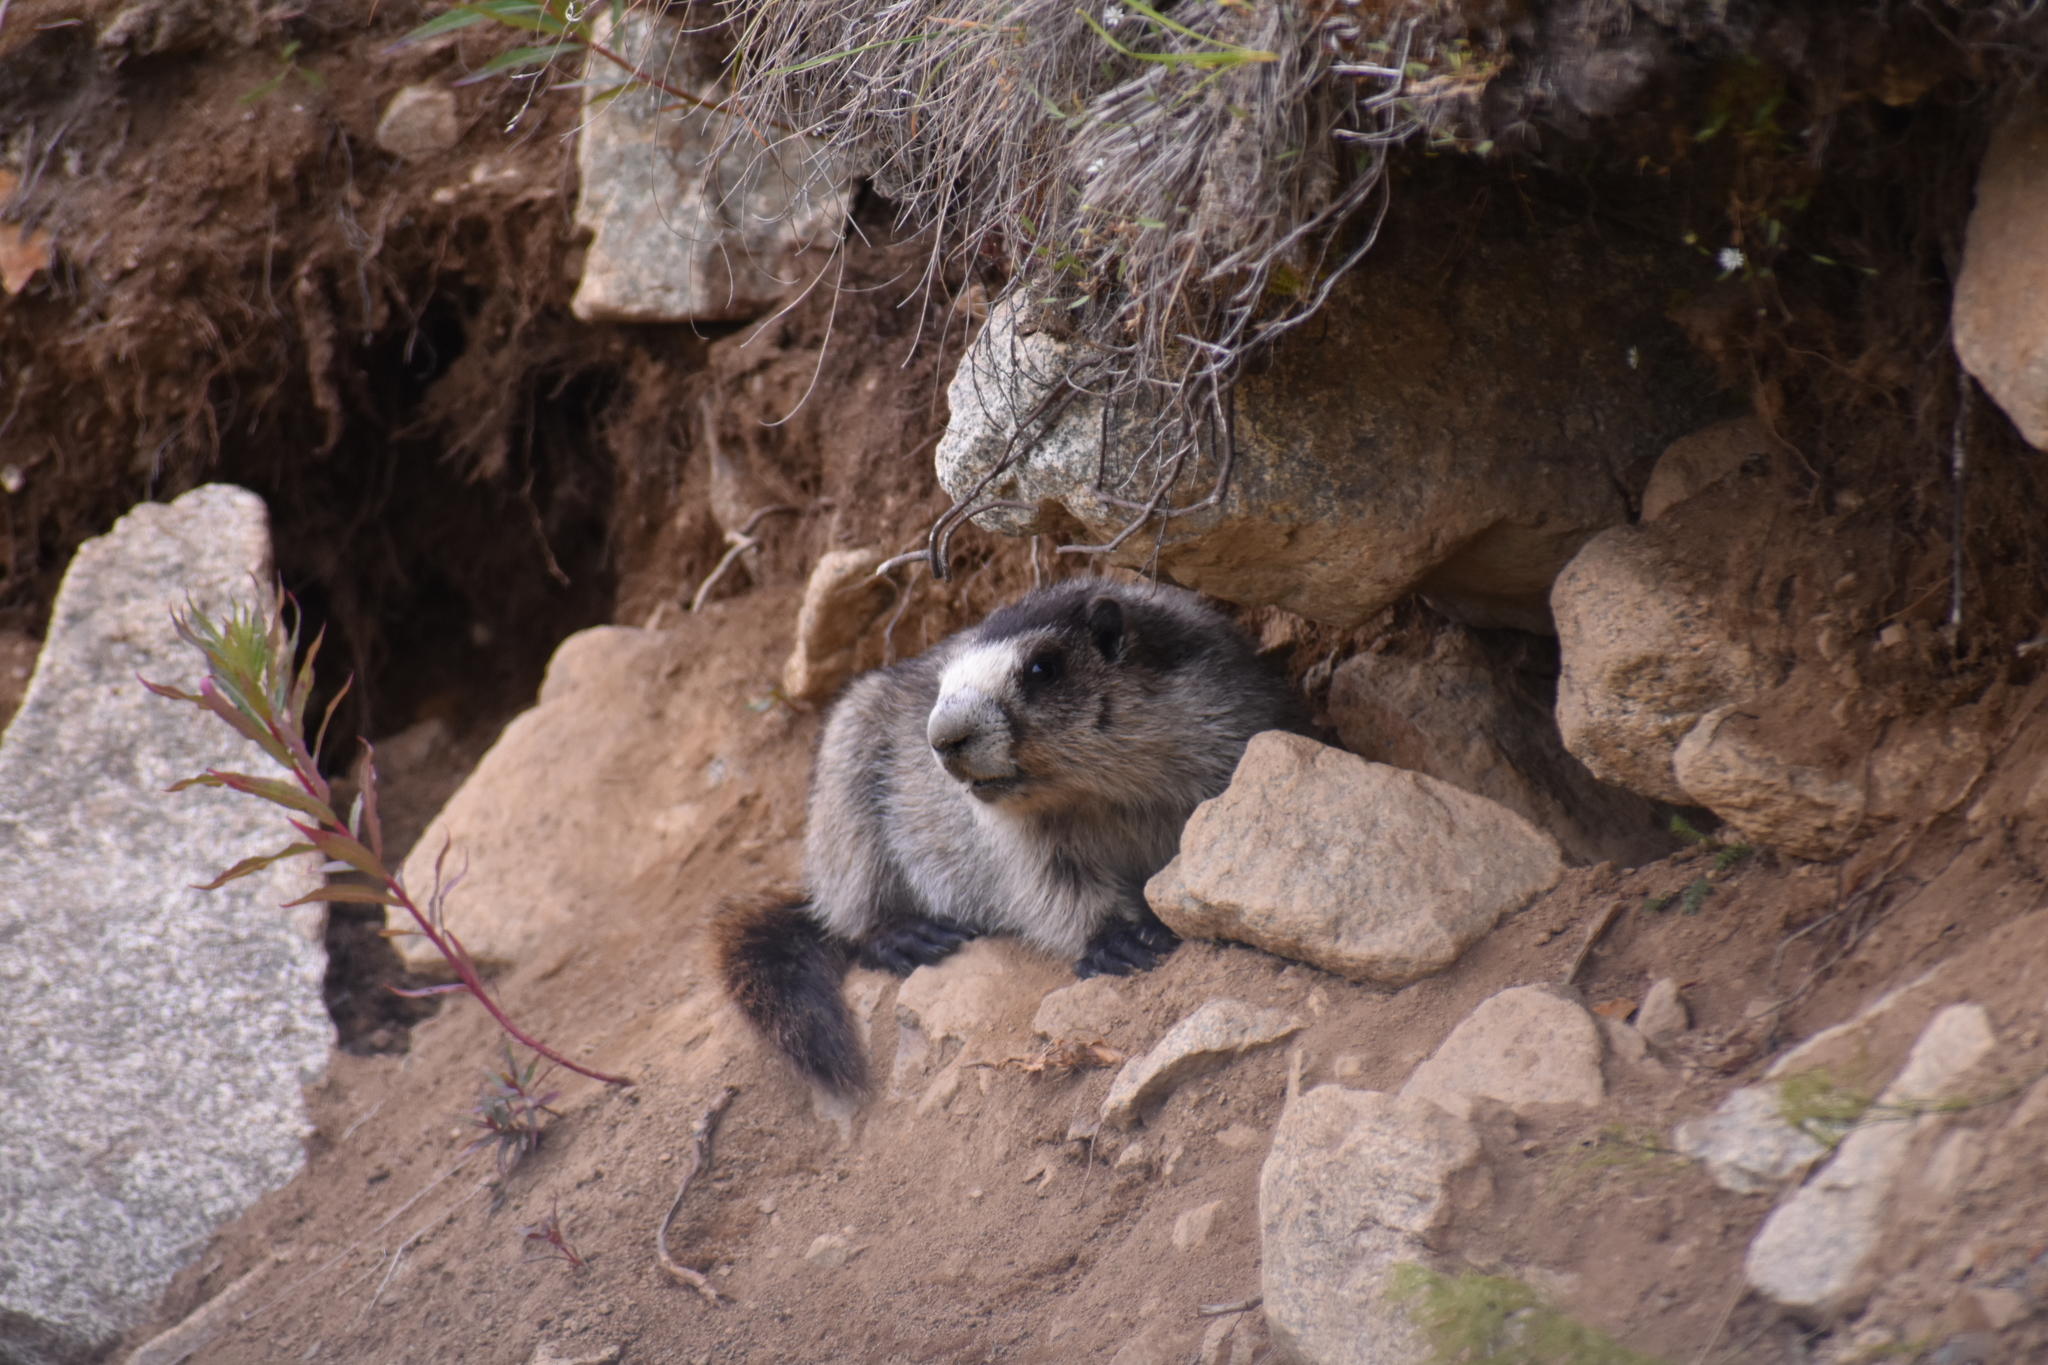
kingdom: Animalia
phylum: Chordata
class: Mammalia
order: Rodentia
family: Sciuridae
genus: Marmota
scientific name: Marmota caligata
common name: Hoary marmot
